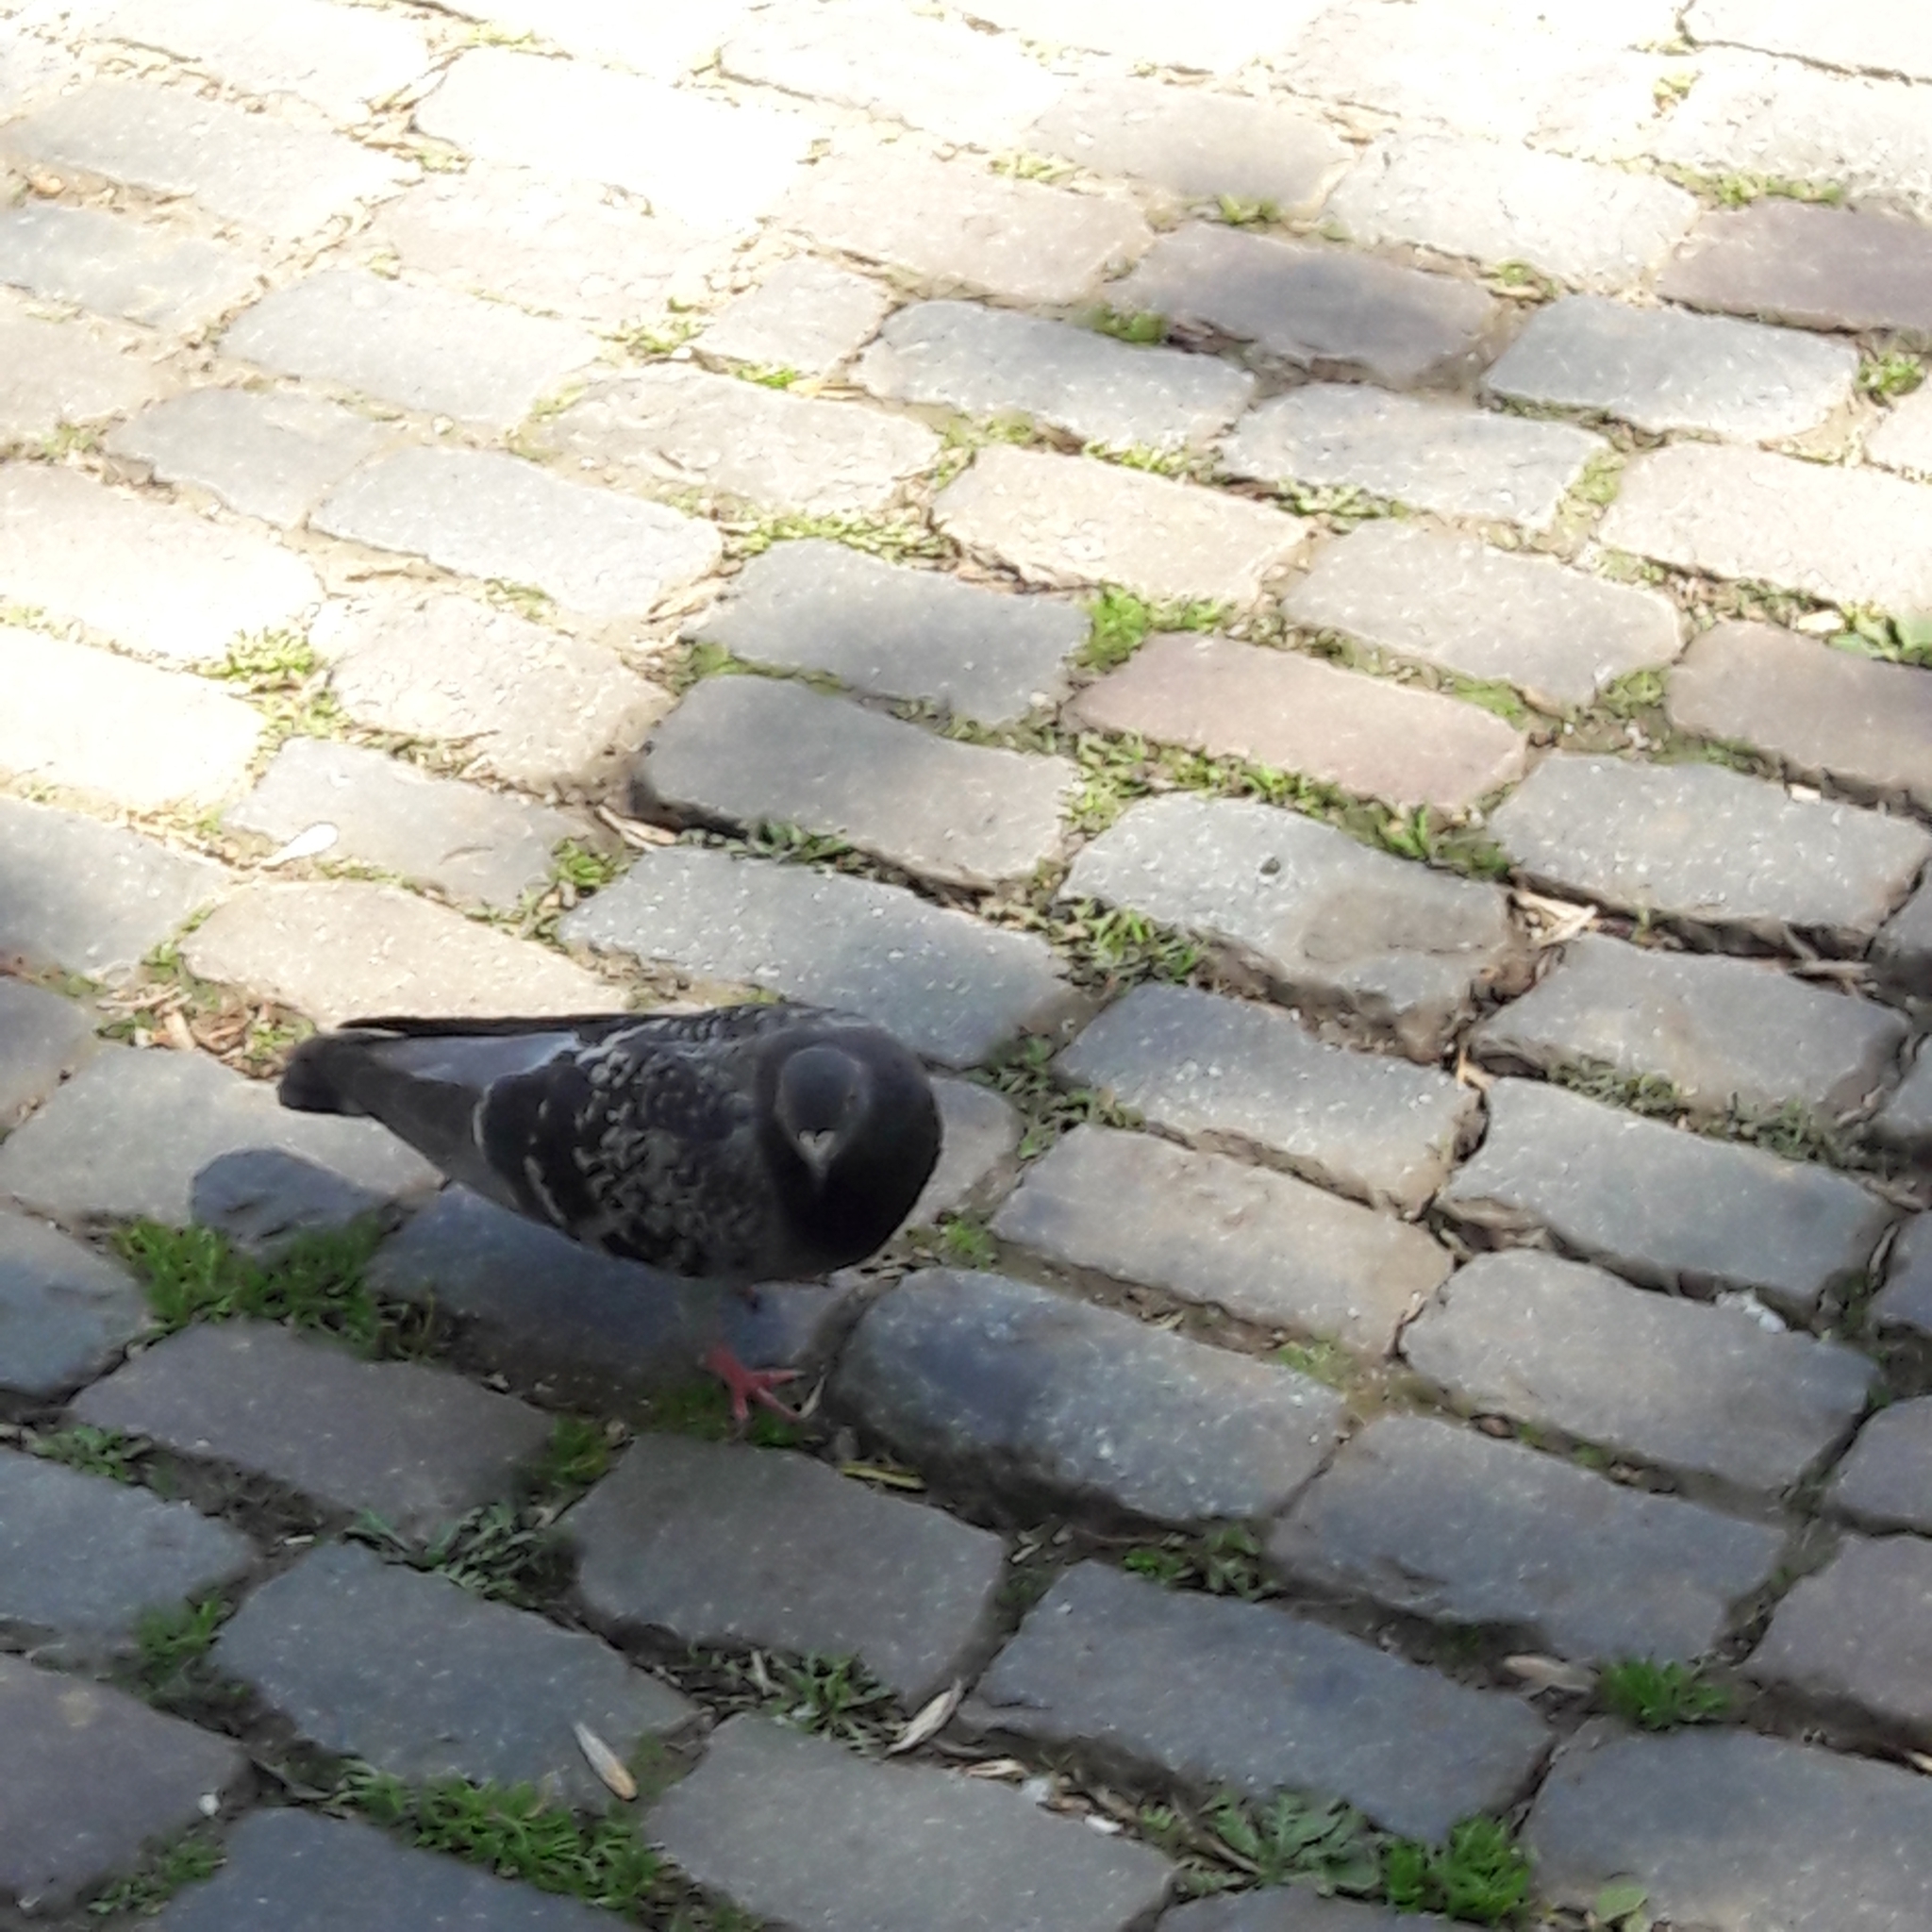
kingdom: Animalia
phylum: Chordata
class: Aves
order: Columbiformes
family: Columbidae
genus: Columba
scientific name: Columba livia
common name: Rock pigeon
